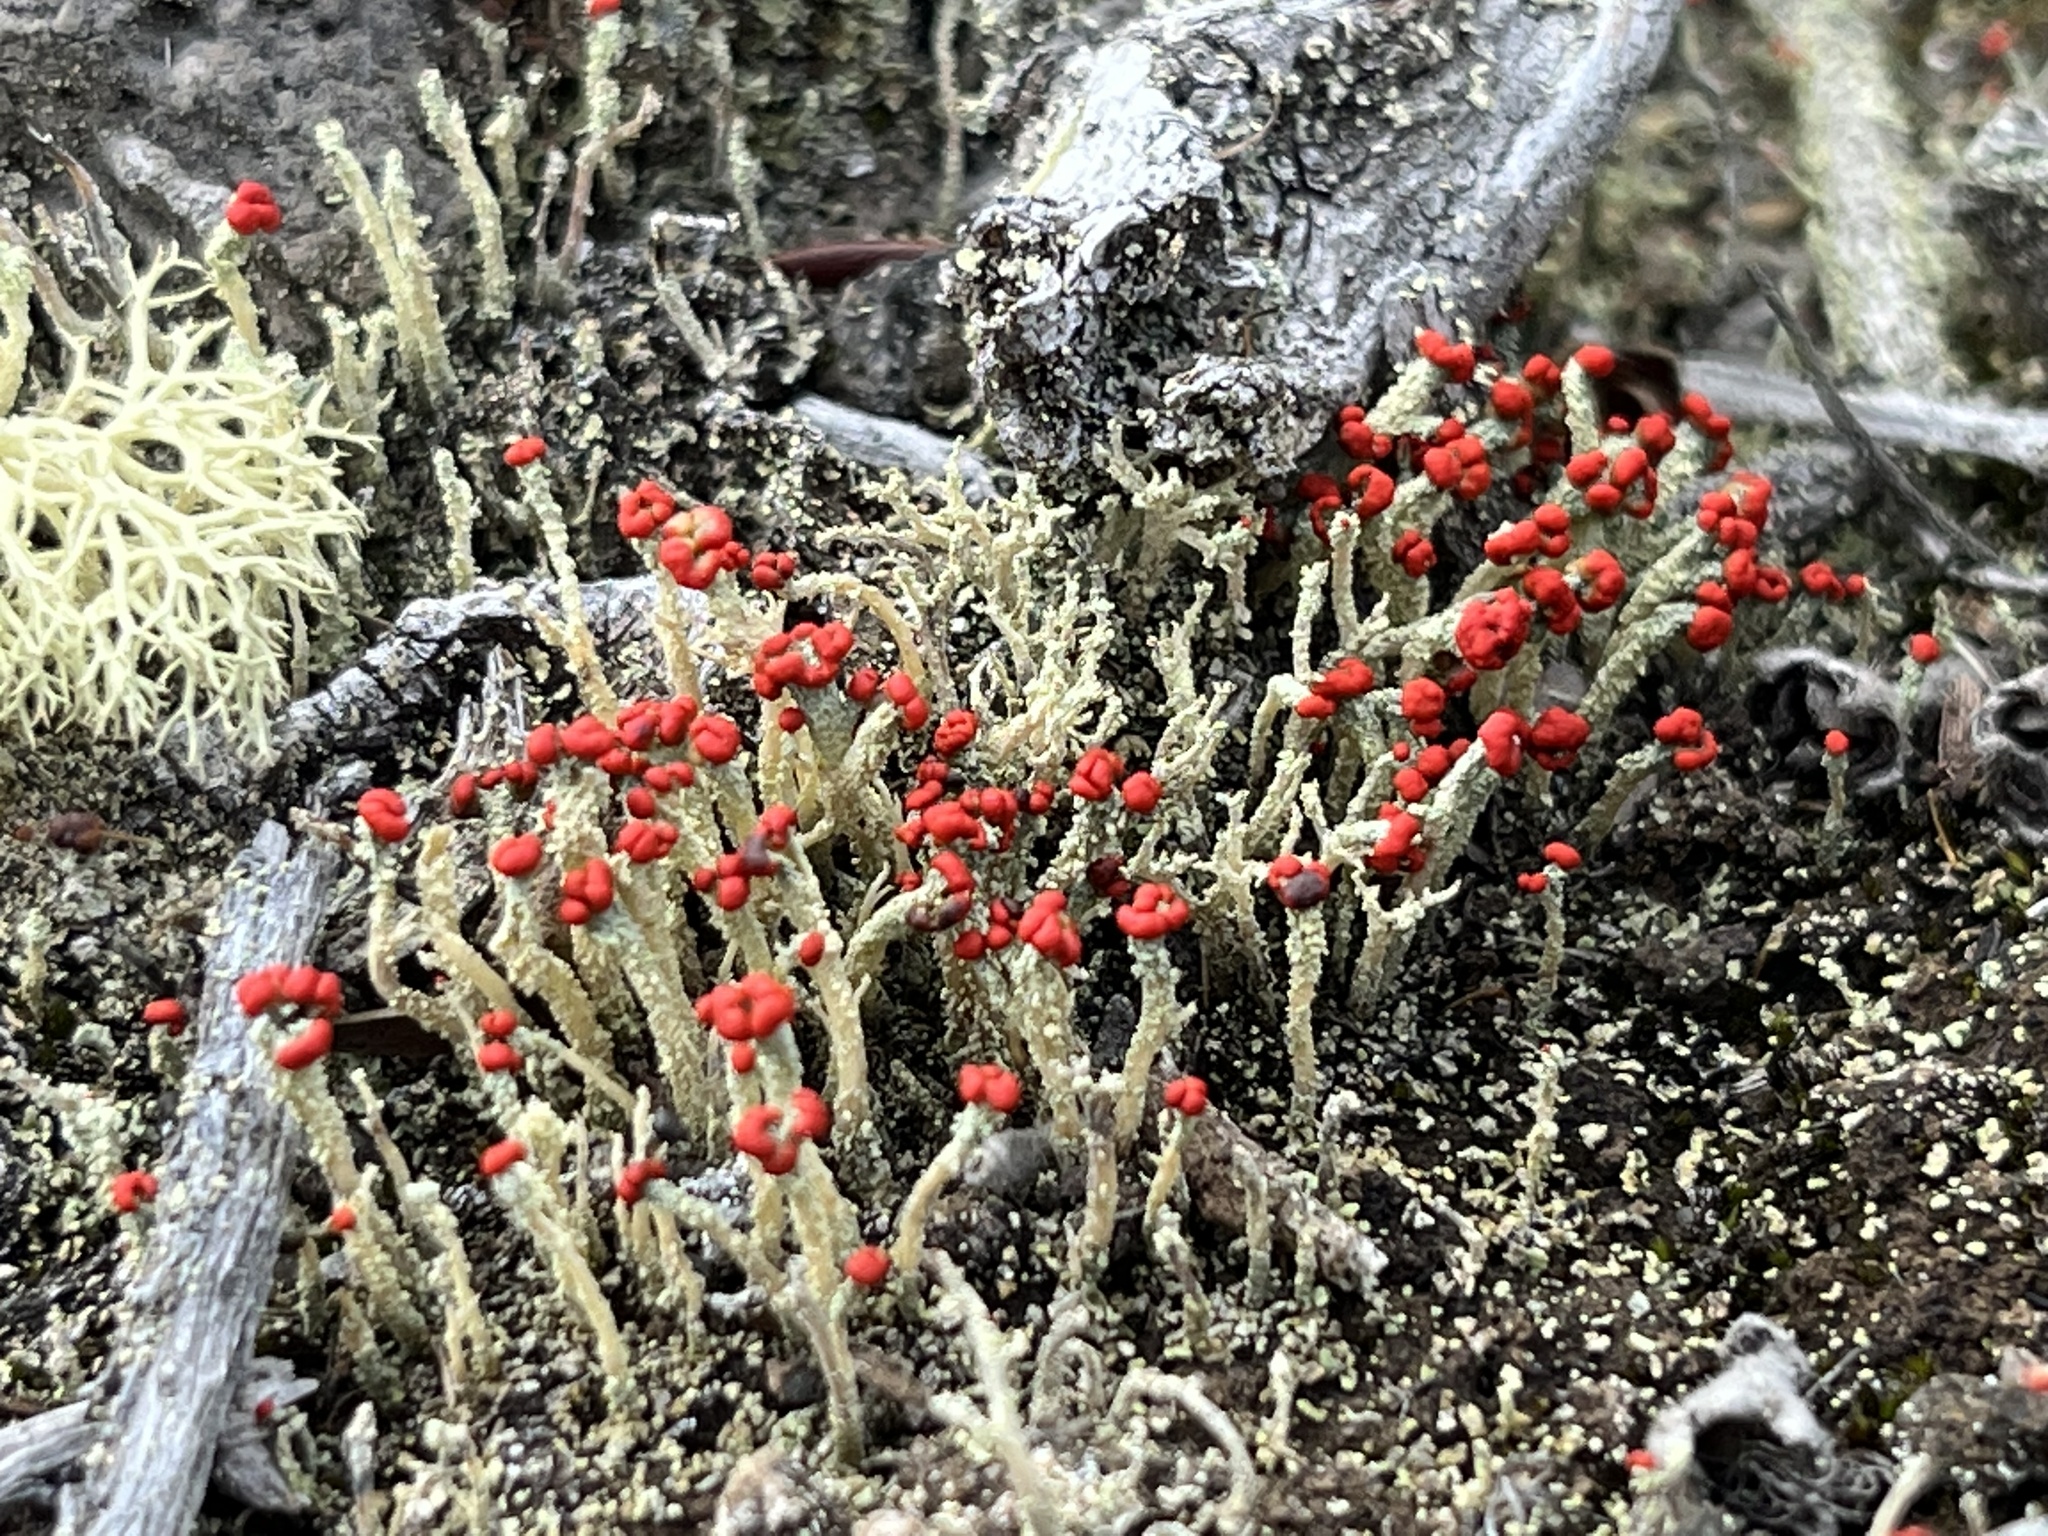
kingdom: Fungi
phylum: Ascomycota
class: Lecanoromycetes
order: Lecanorales
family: Cladoniaceae
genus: Cladonia
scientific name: Cladonia didyma
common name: Southern soldiers
